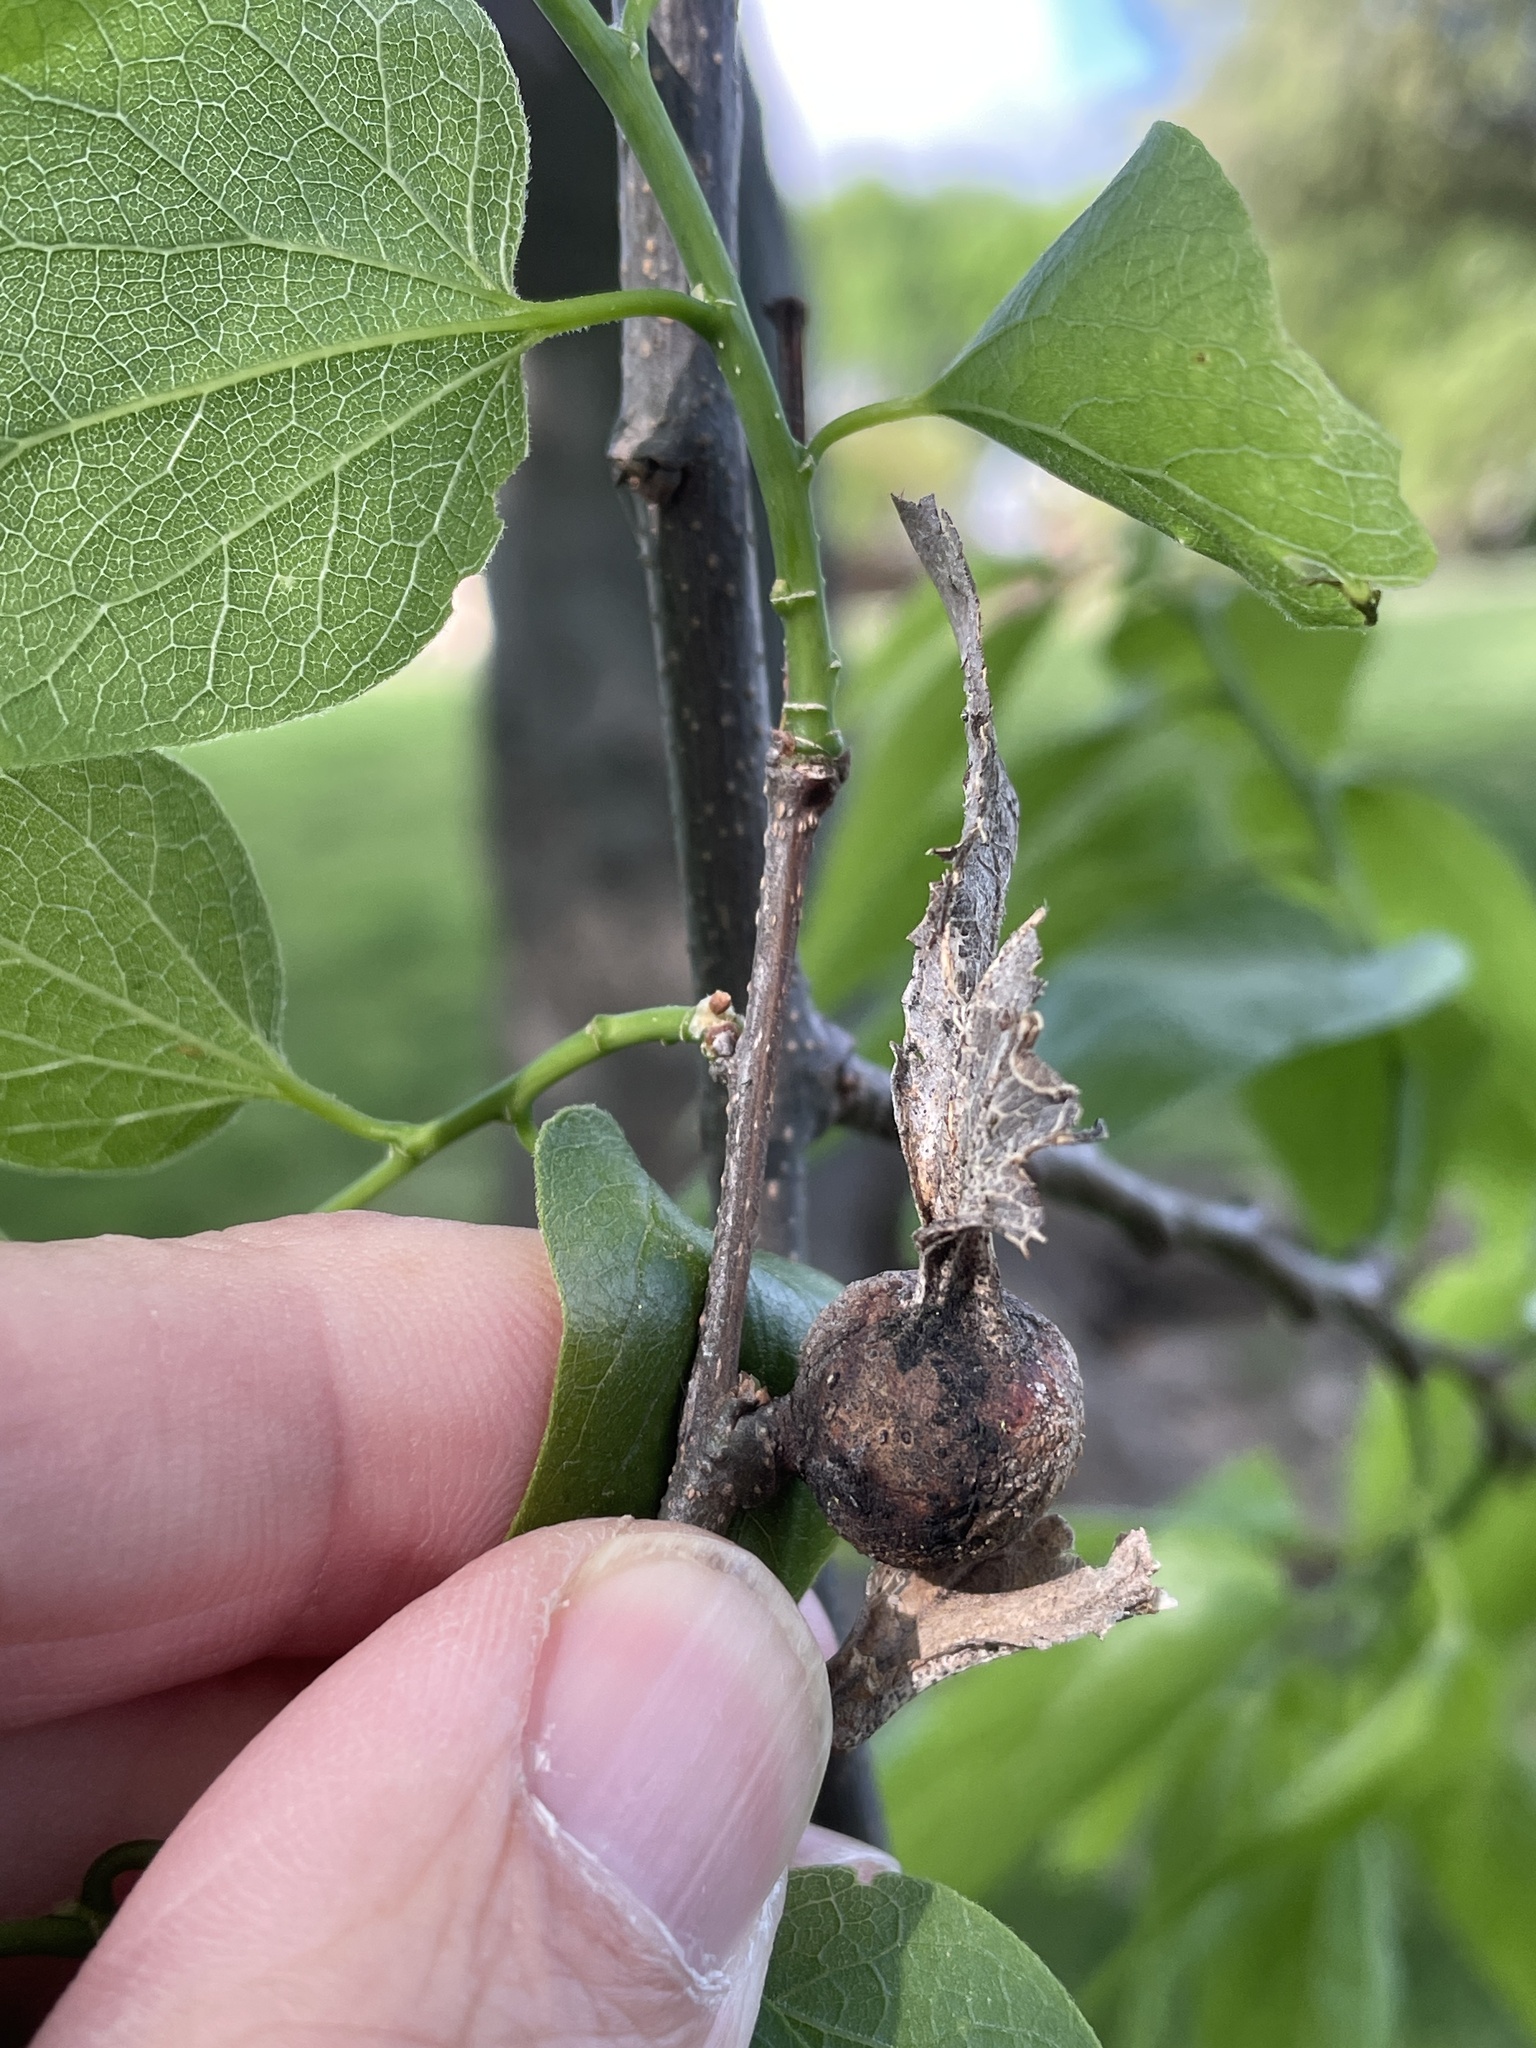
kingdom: Animalia
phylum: Arthropoda
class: Insecta
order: Hemiptera
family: Aphalaridae
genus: Pachypsylla
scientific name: Pachypsylla venusta
